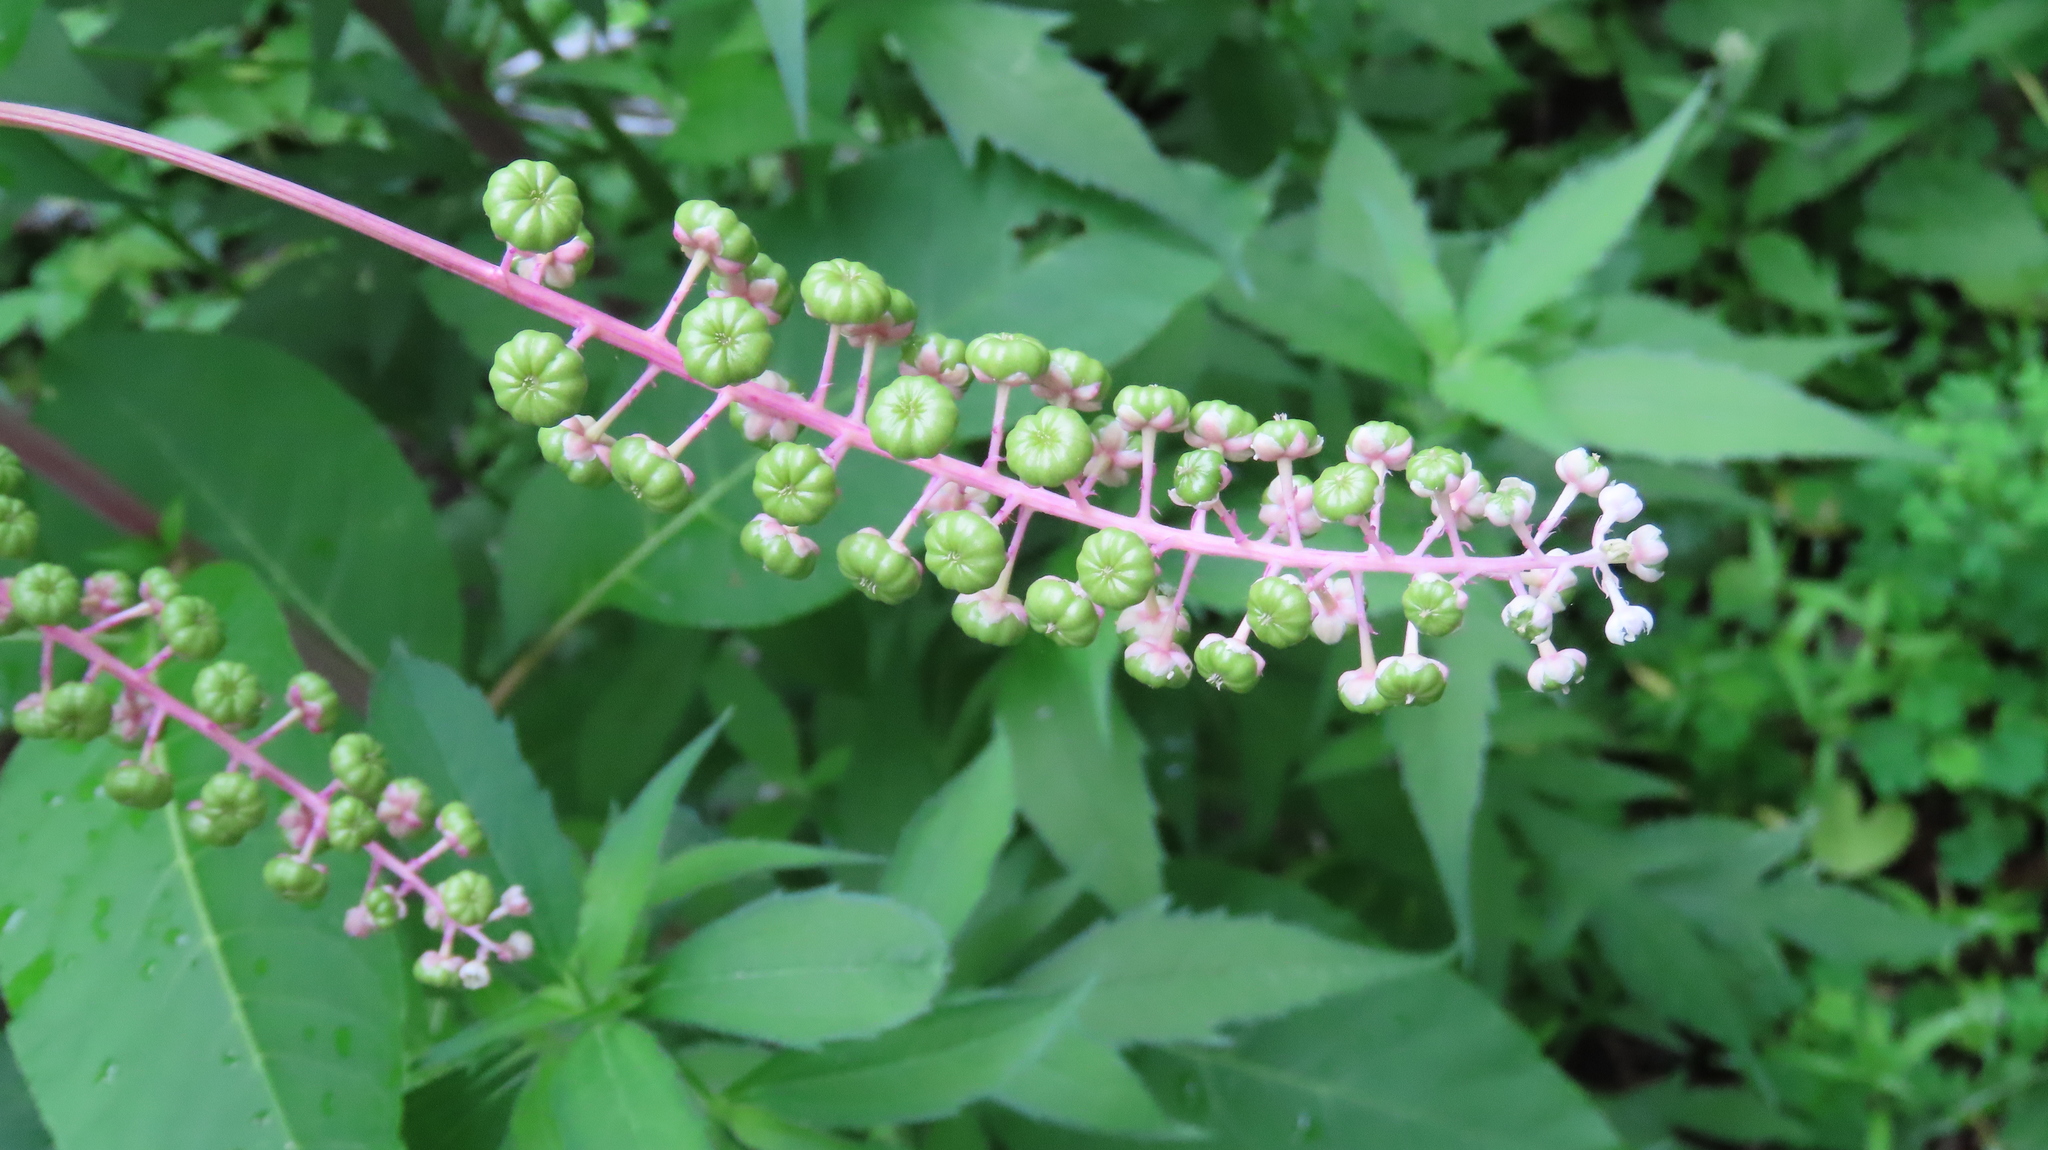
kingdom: Plantae
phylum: Tracheophyta
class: Magnoliopsida
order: Caryophyllales
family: Phytolaccaceae
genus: Phytolacca
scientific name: Phytolacca americana
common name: American pokeweed
